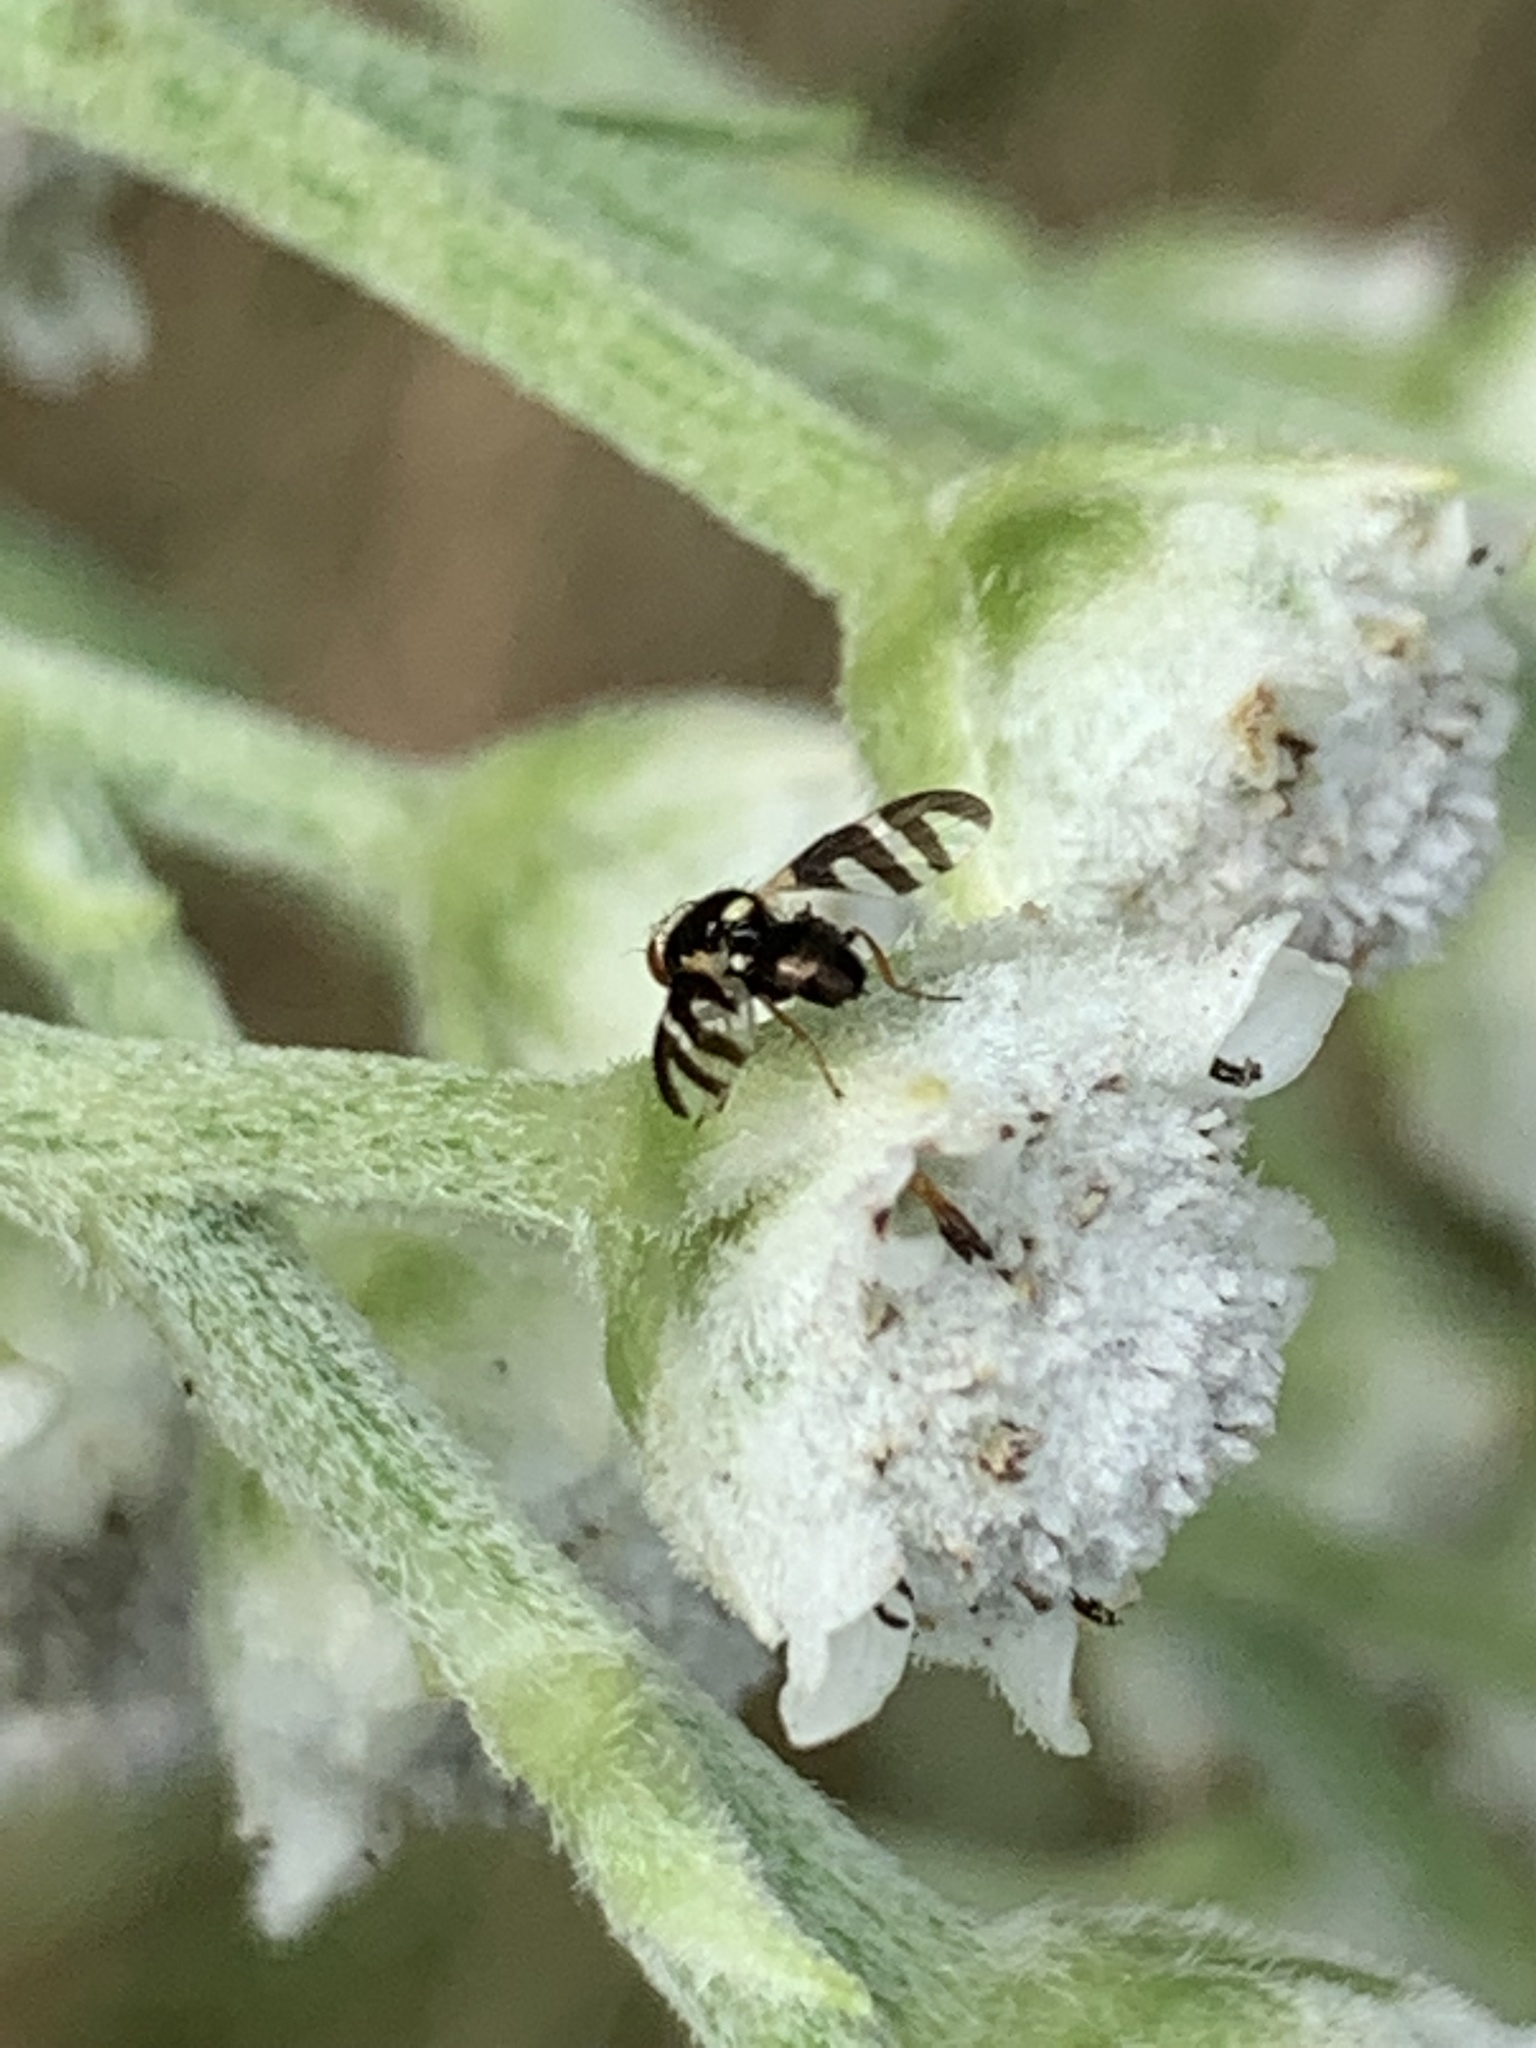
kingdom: Animalia
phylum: Arthropoda
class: Insecta
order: Diptera
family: Tephritidae
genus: Urophora
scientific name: Urophora quadrifasciata
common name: Knapweed seedhead fly
